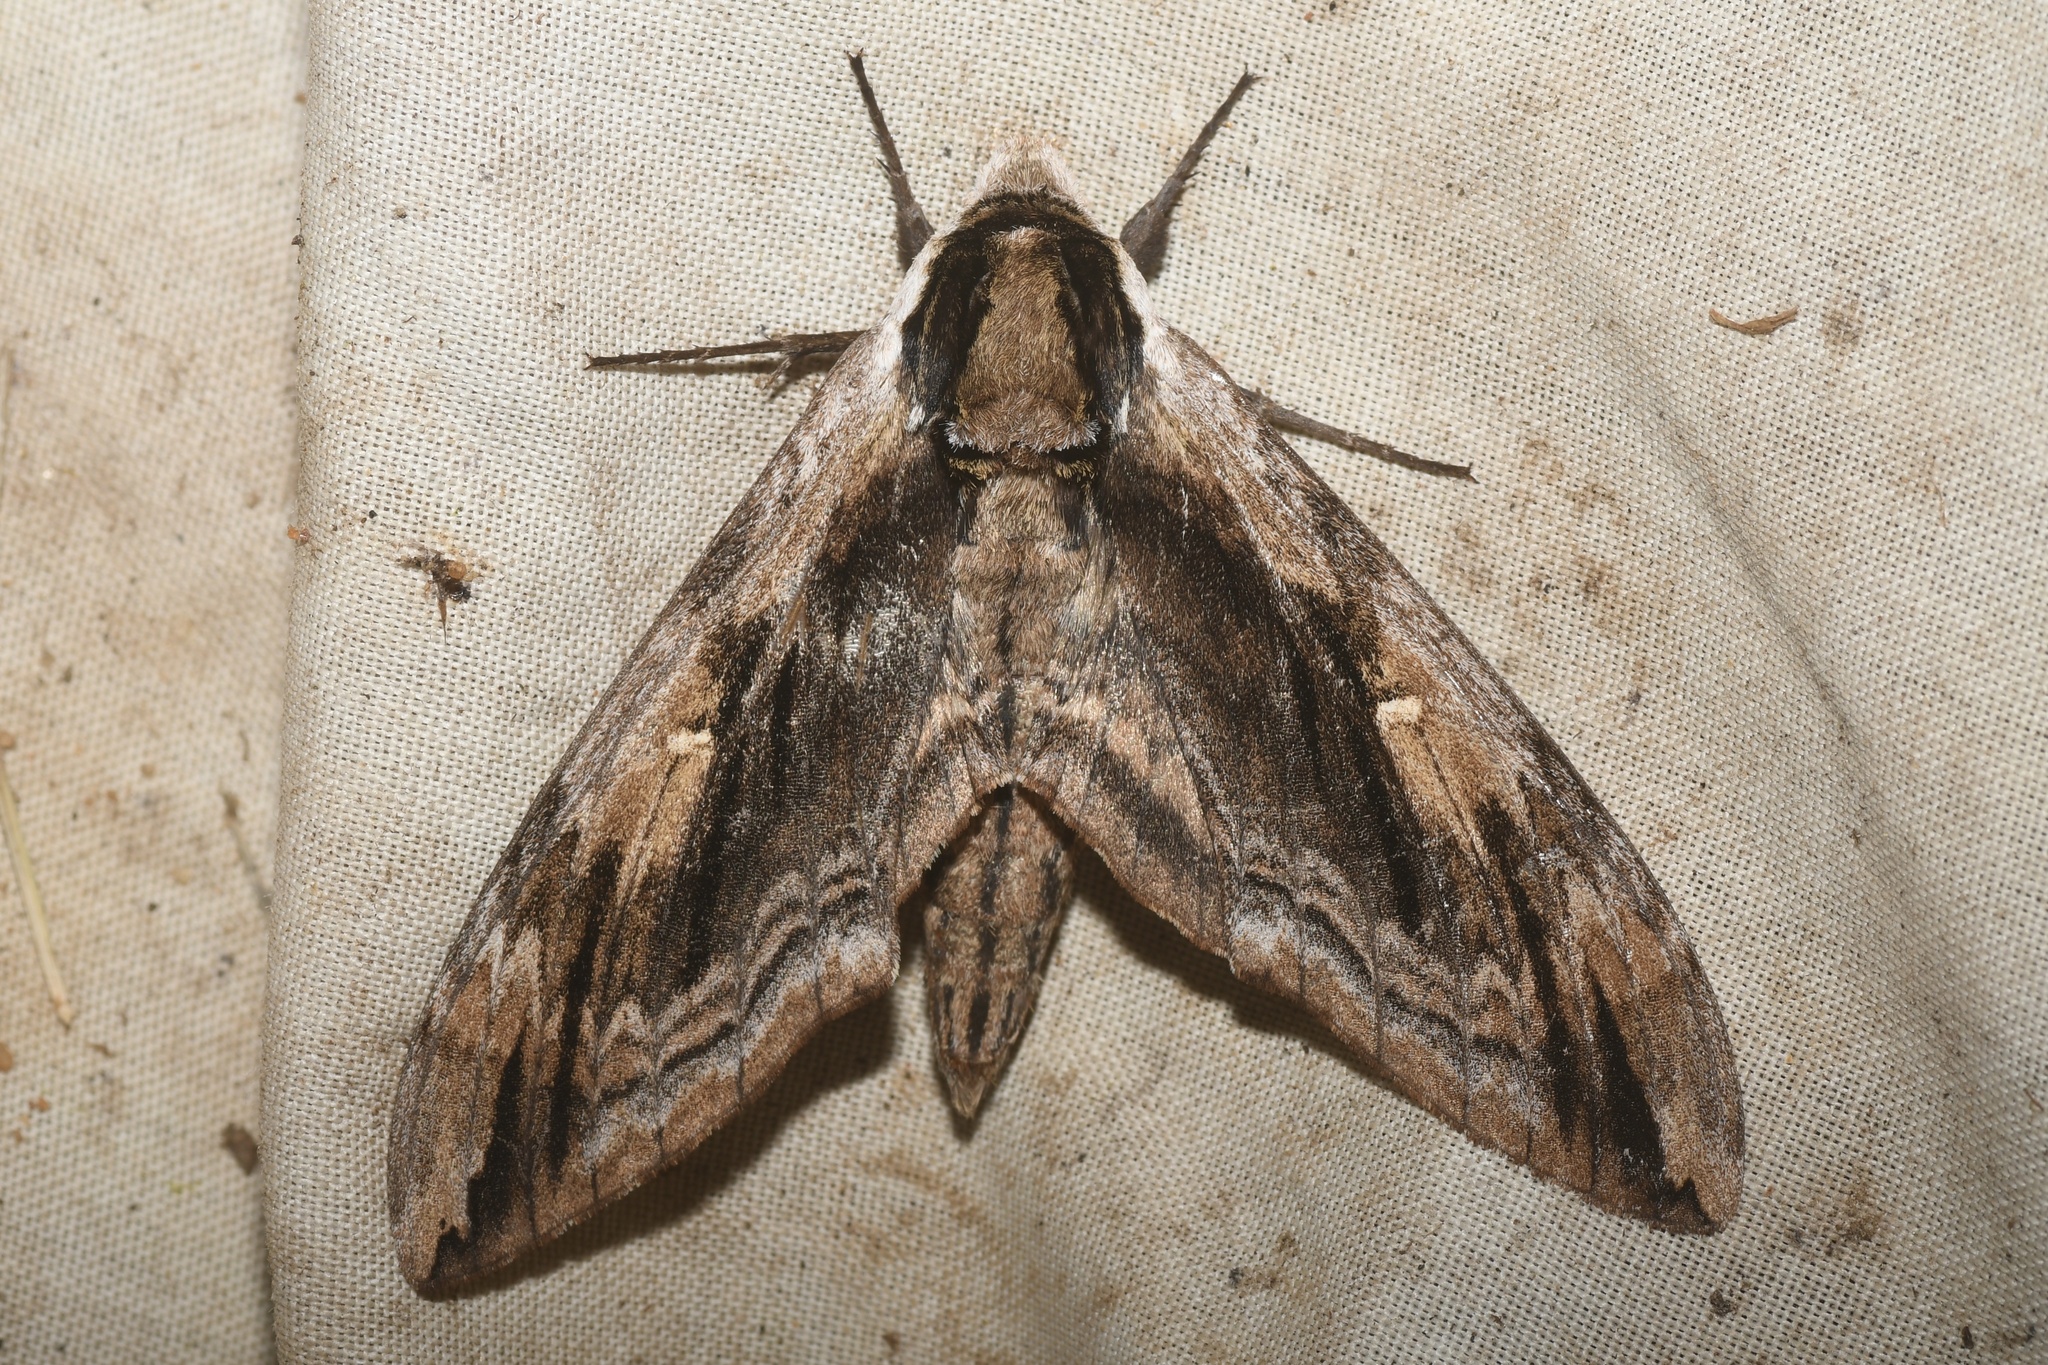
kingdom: Animalia
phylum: Arthropoda
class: Insecta
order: Lepidoptera
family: Sphingidae
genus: Ceratomia
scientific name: Ceratomia amyntor
